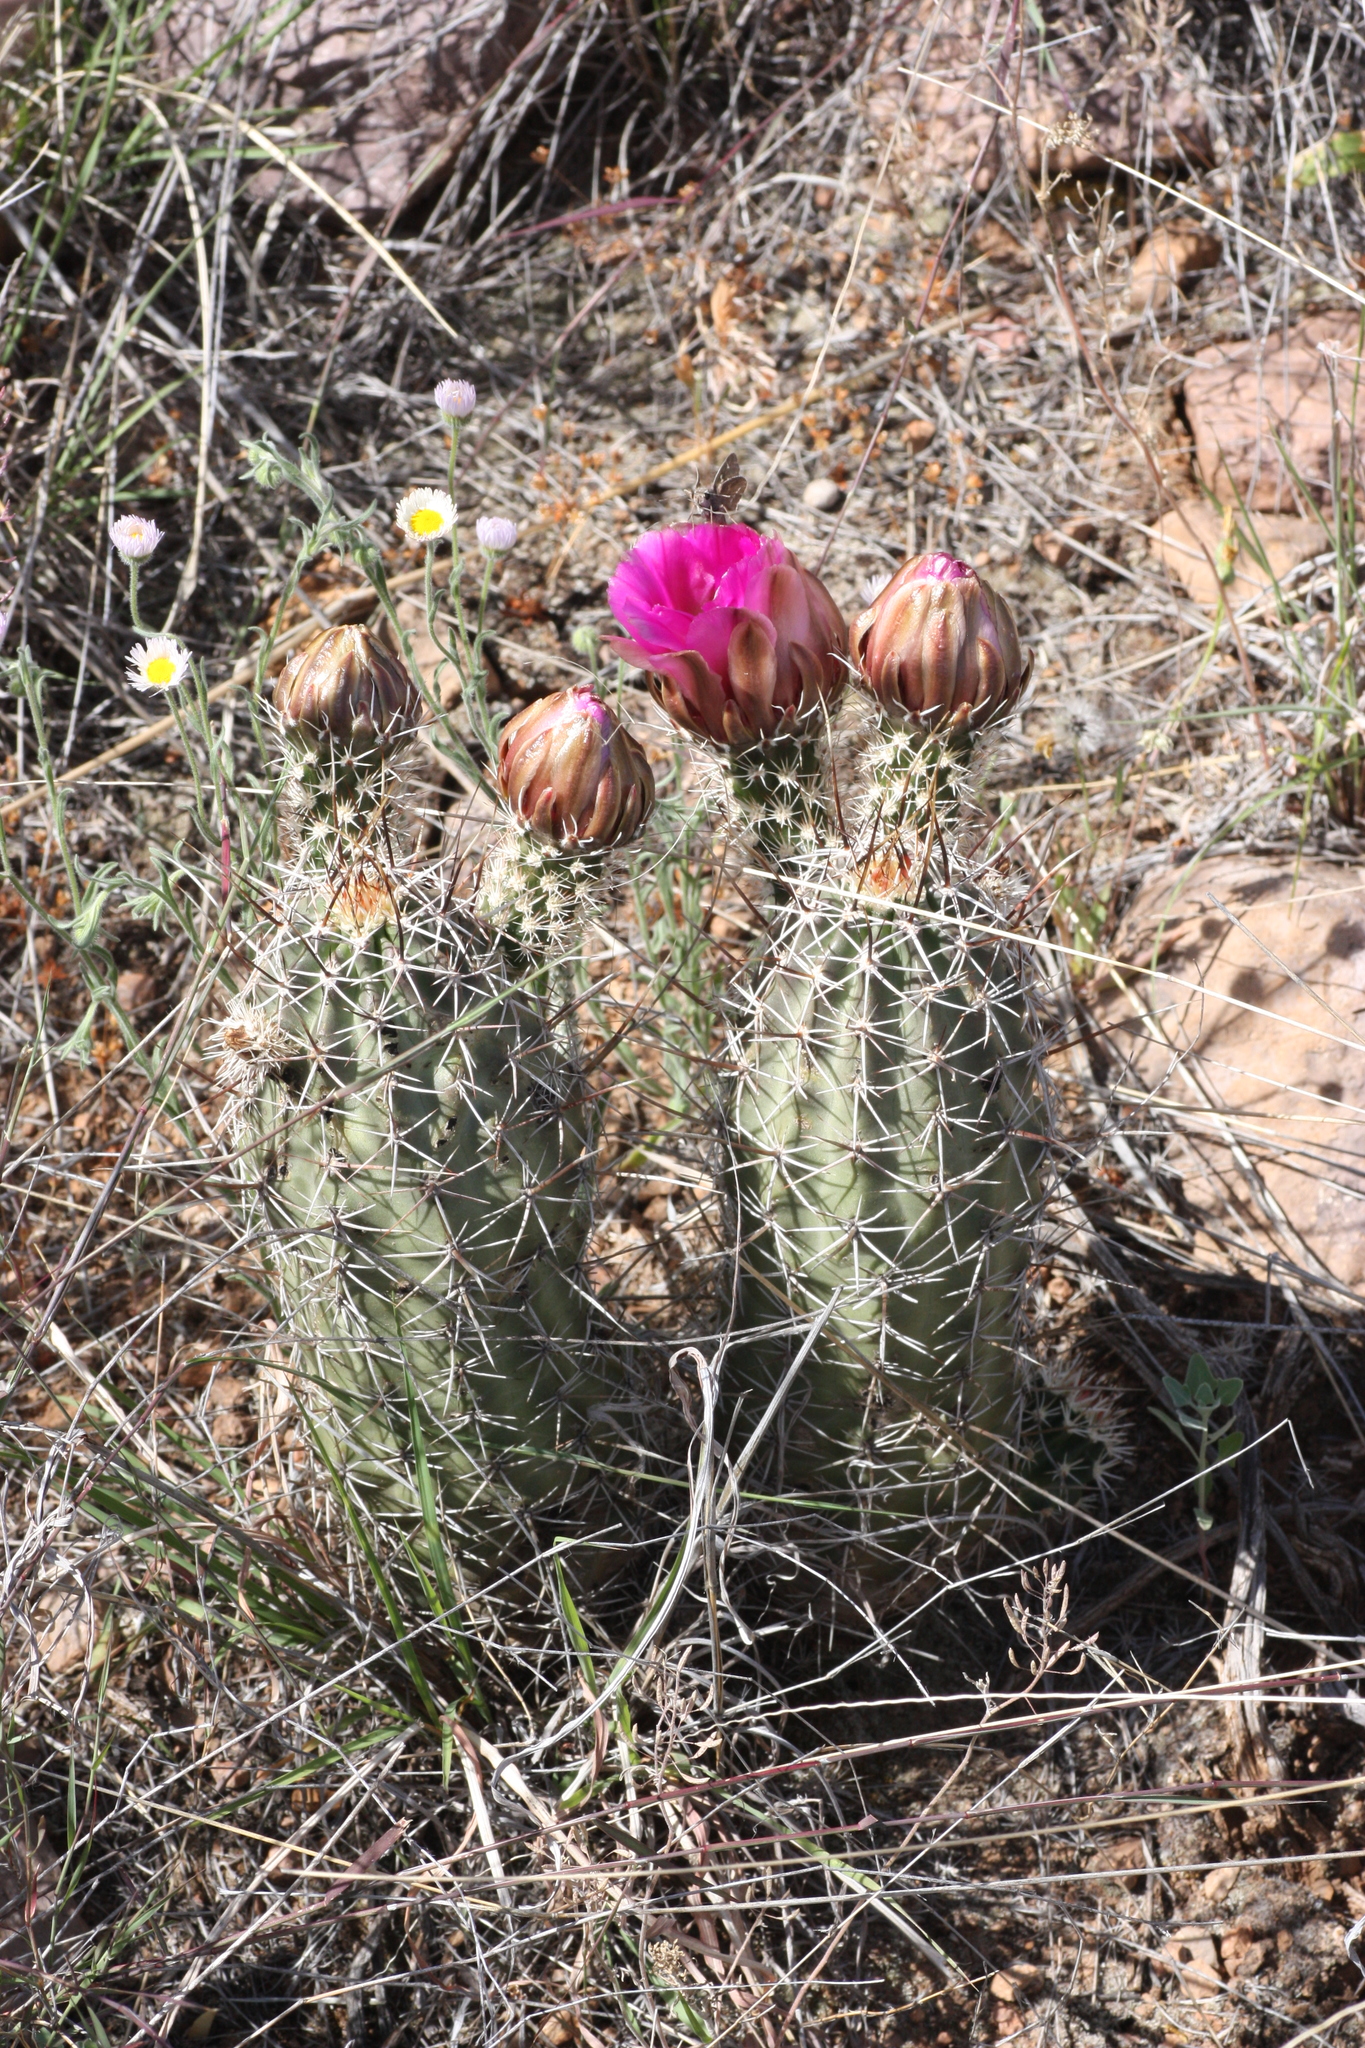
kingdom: Plantae
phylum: Tracheophyta
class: Magnoliopsida
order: Caryophyllales
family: Cactaceae
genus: Echinocereus
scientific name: Echinocereus fendleri
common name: Fendler's hedgehog cactus
